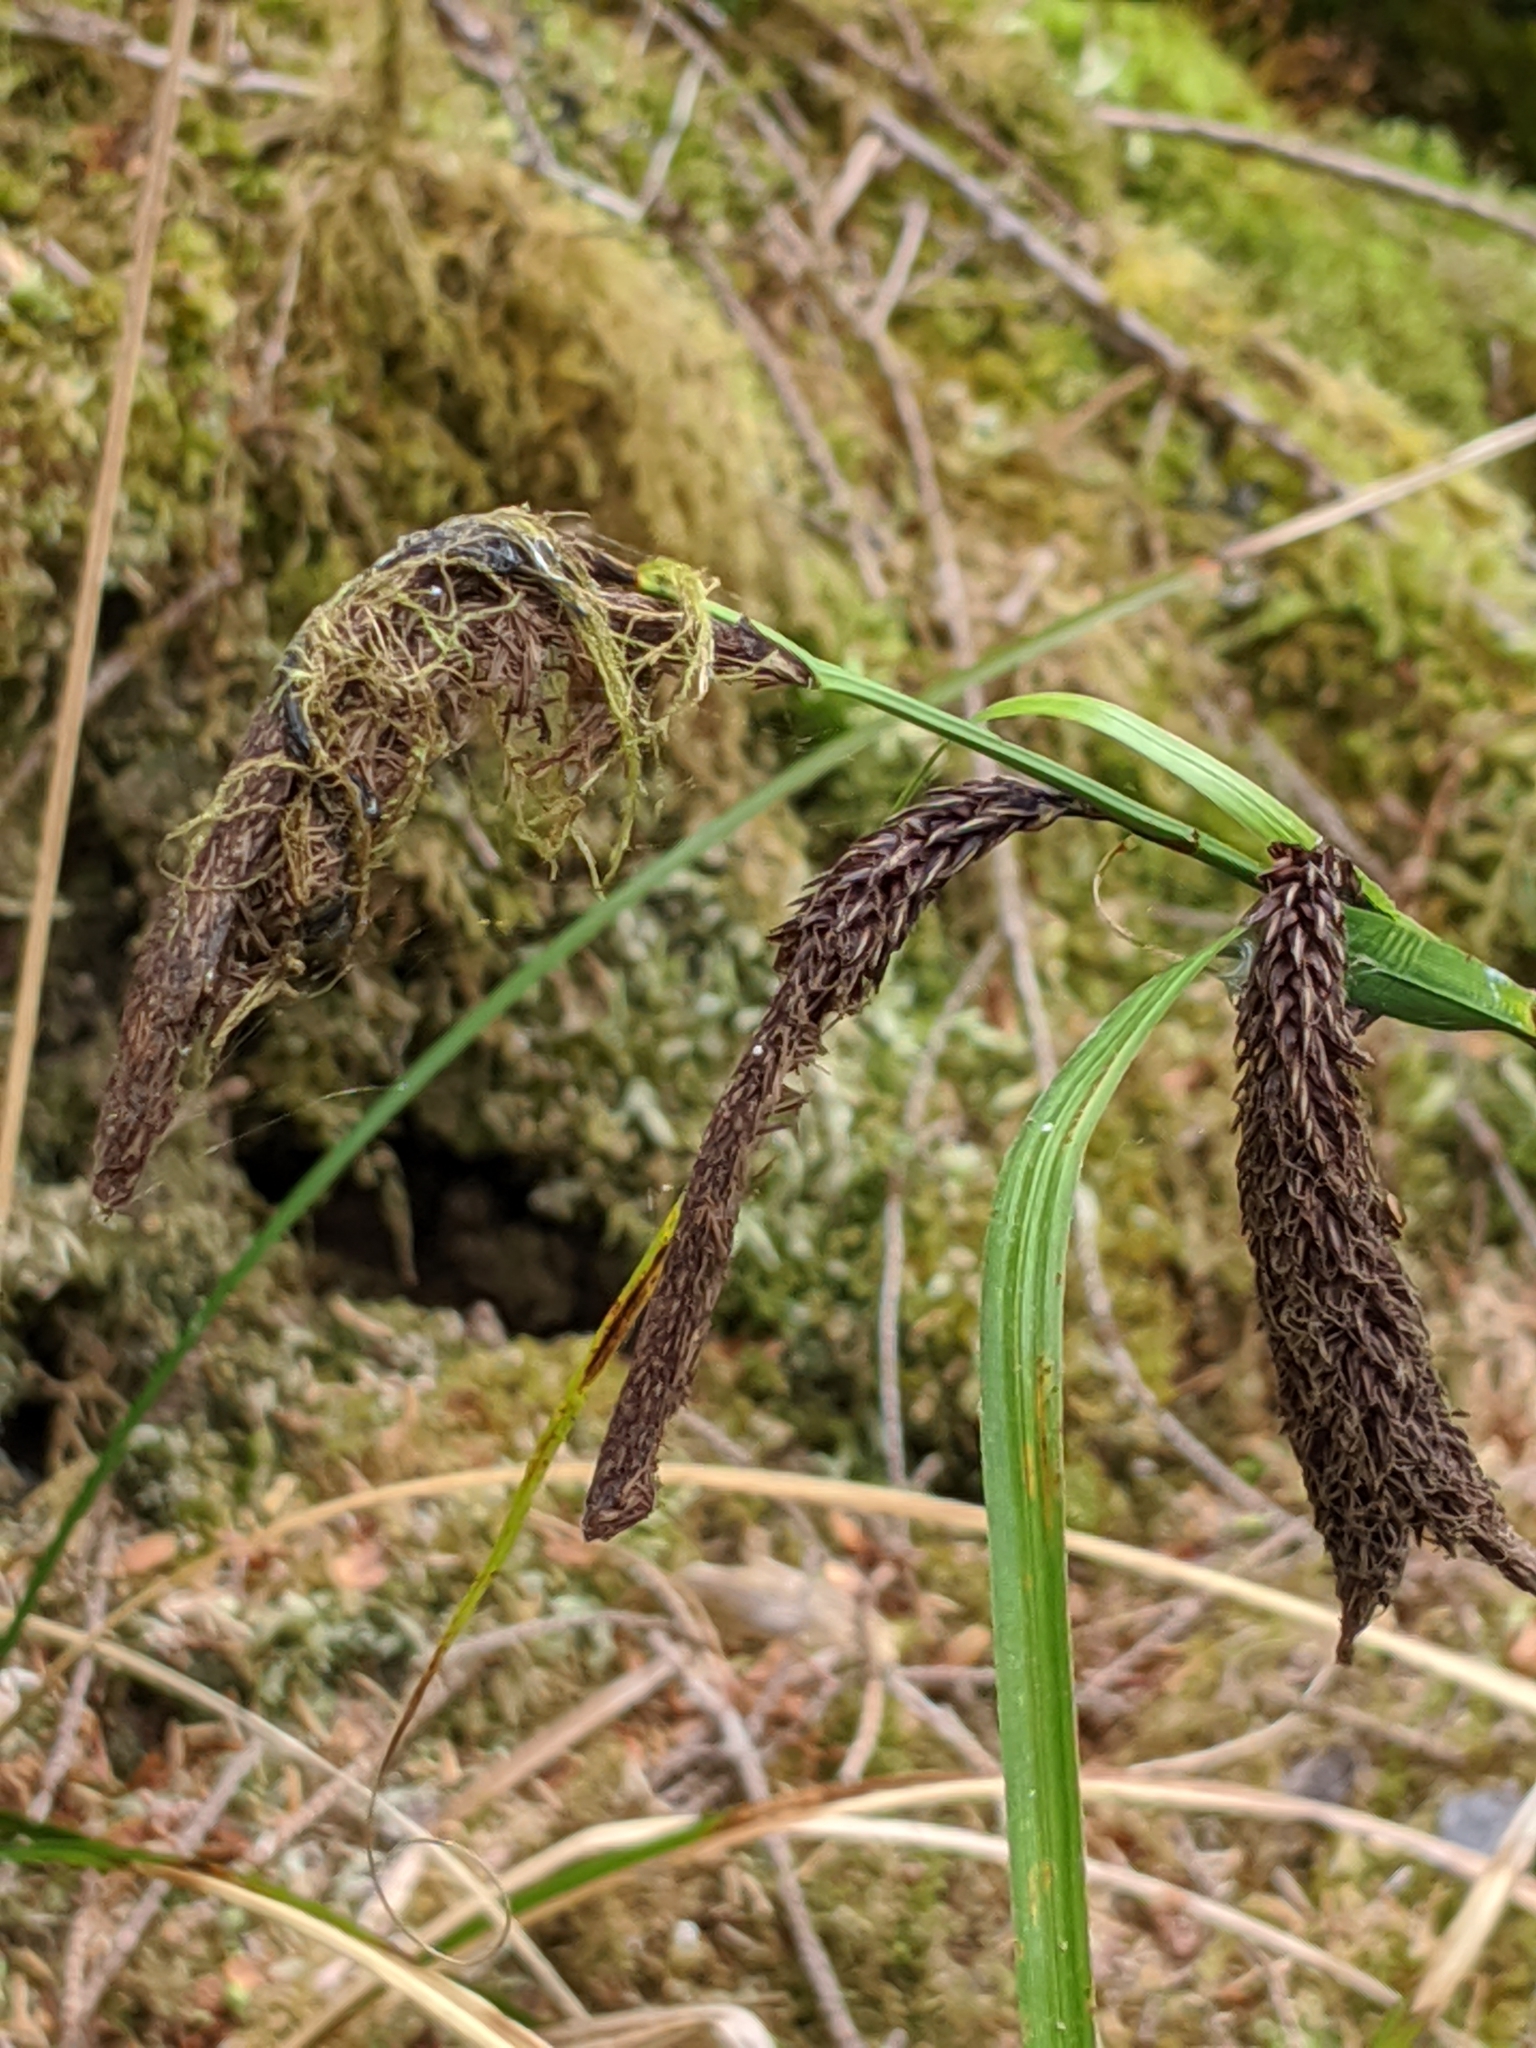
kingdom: Plantae
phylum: Tracheophyta
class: Liliopsida
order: Poales
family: Cyperaceae
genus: Carex
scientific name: Carex obnupta
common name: Slough sedge
